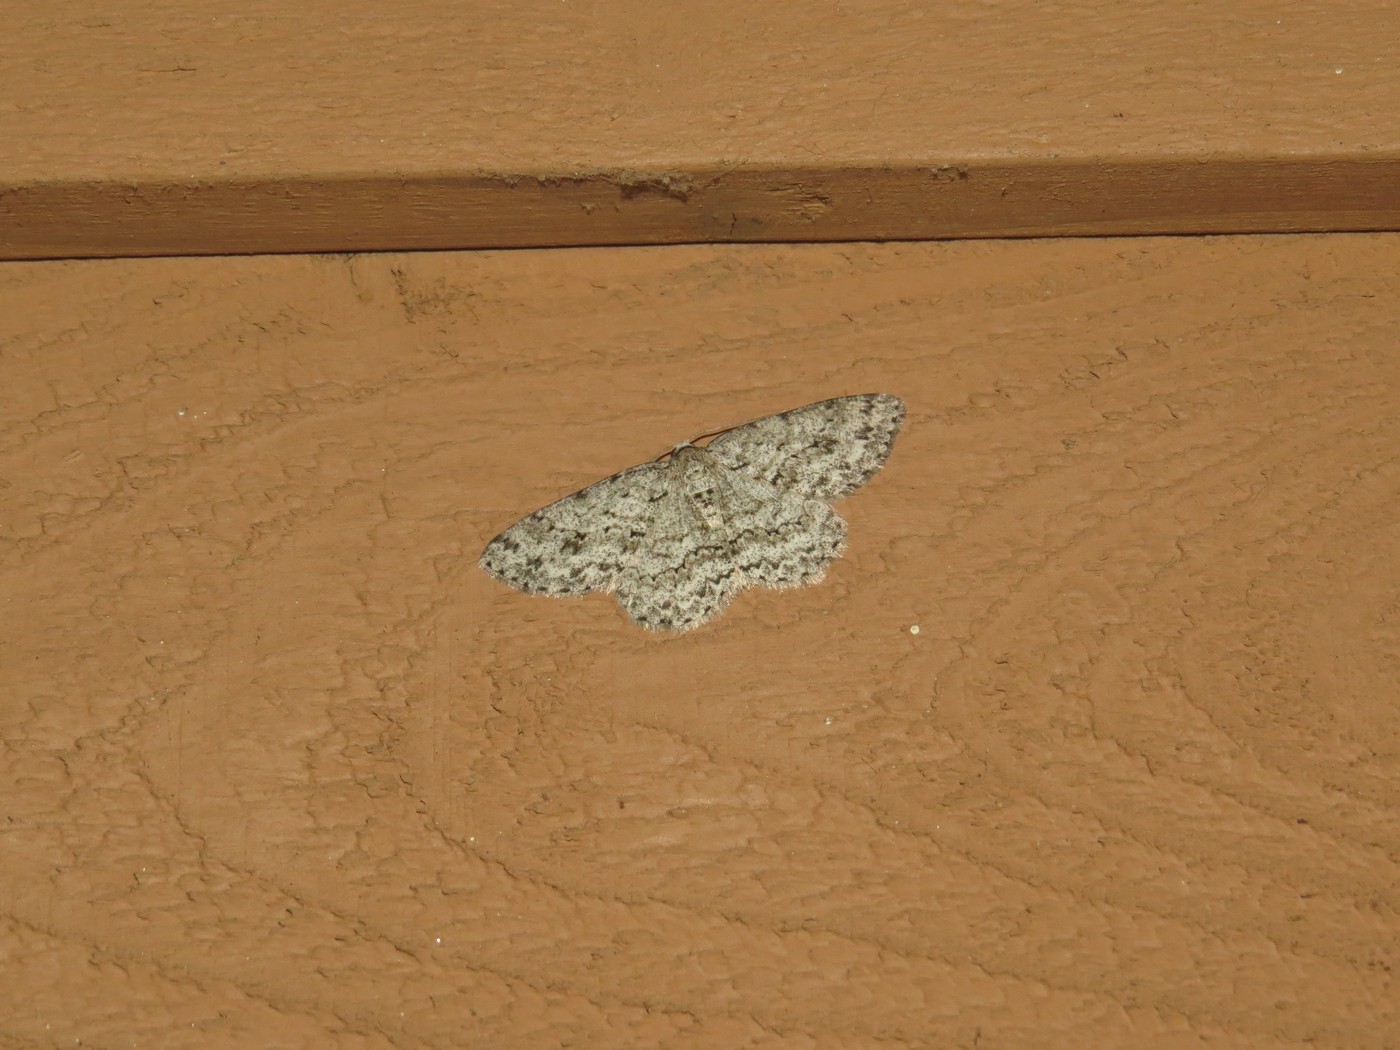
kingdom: Animalia
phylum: Arthropoda
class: Insecta
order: Lepidoptera
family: Geometridae
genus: Ectropis
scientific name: Ectropis crepuscularia
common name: Engrailed
